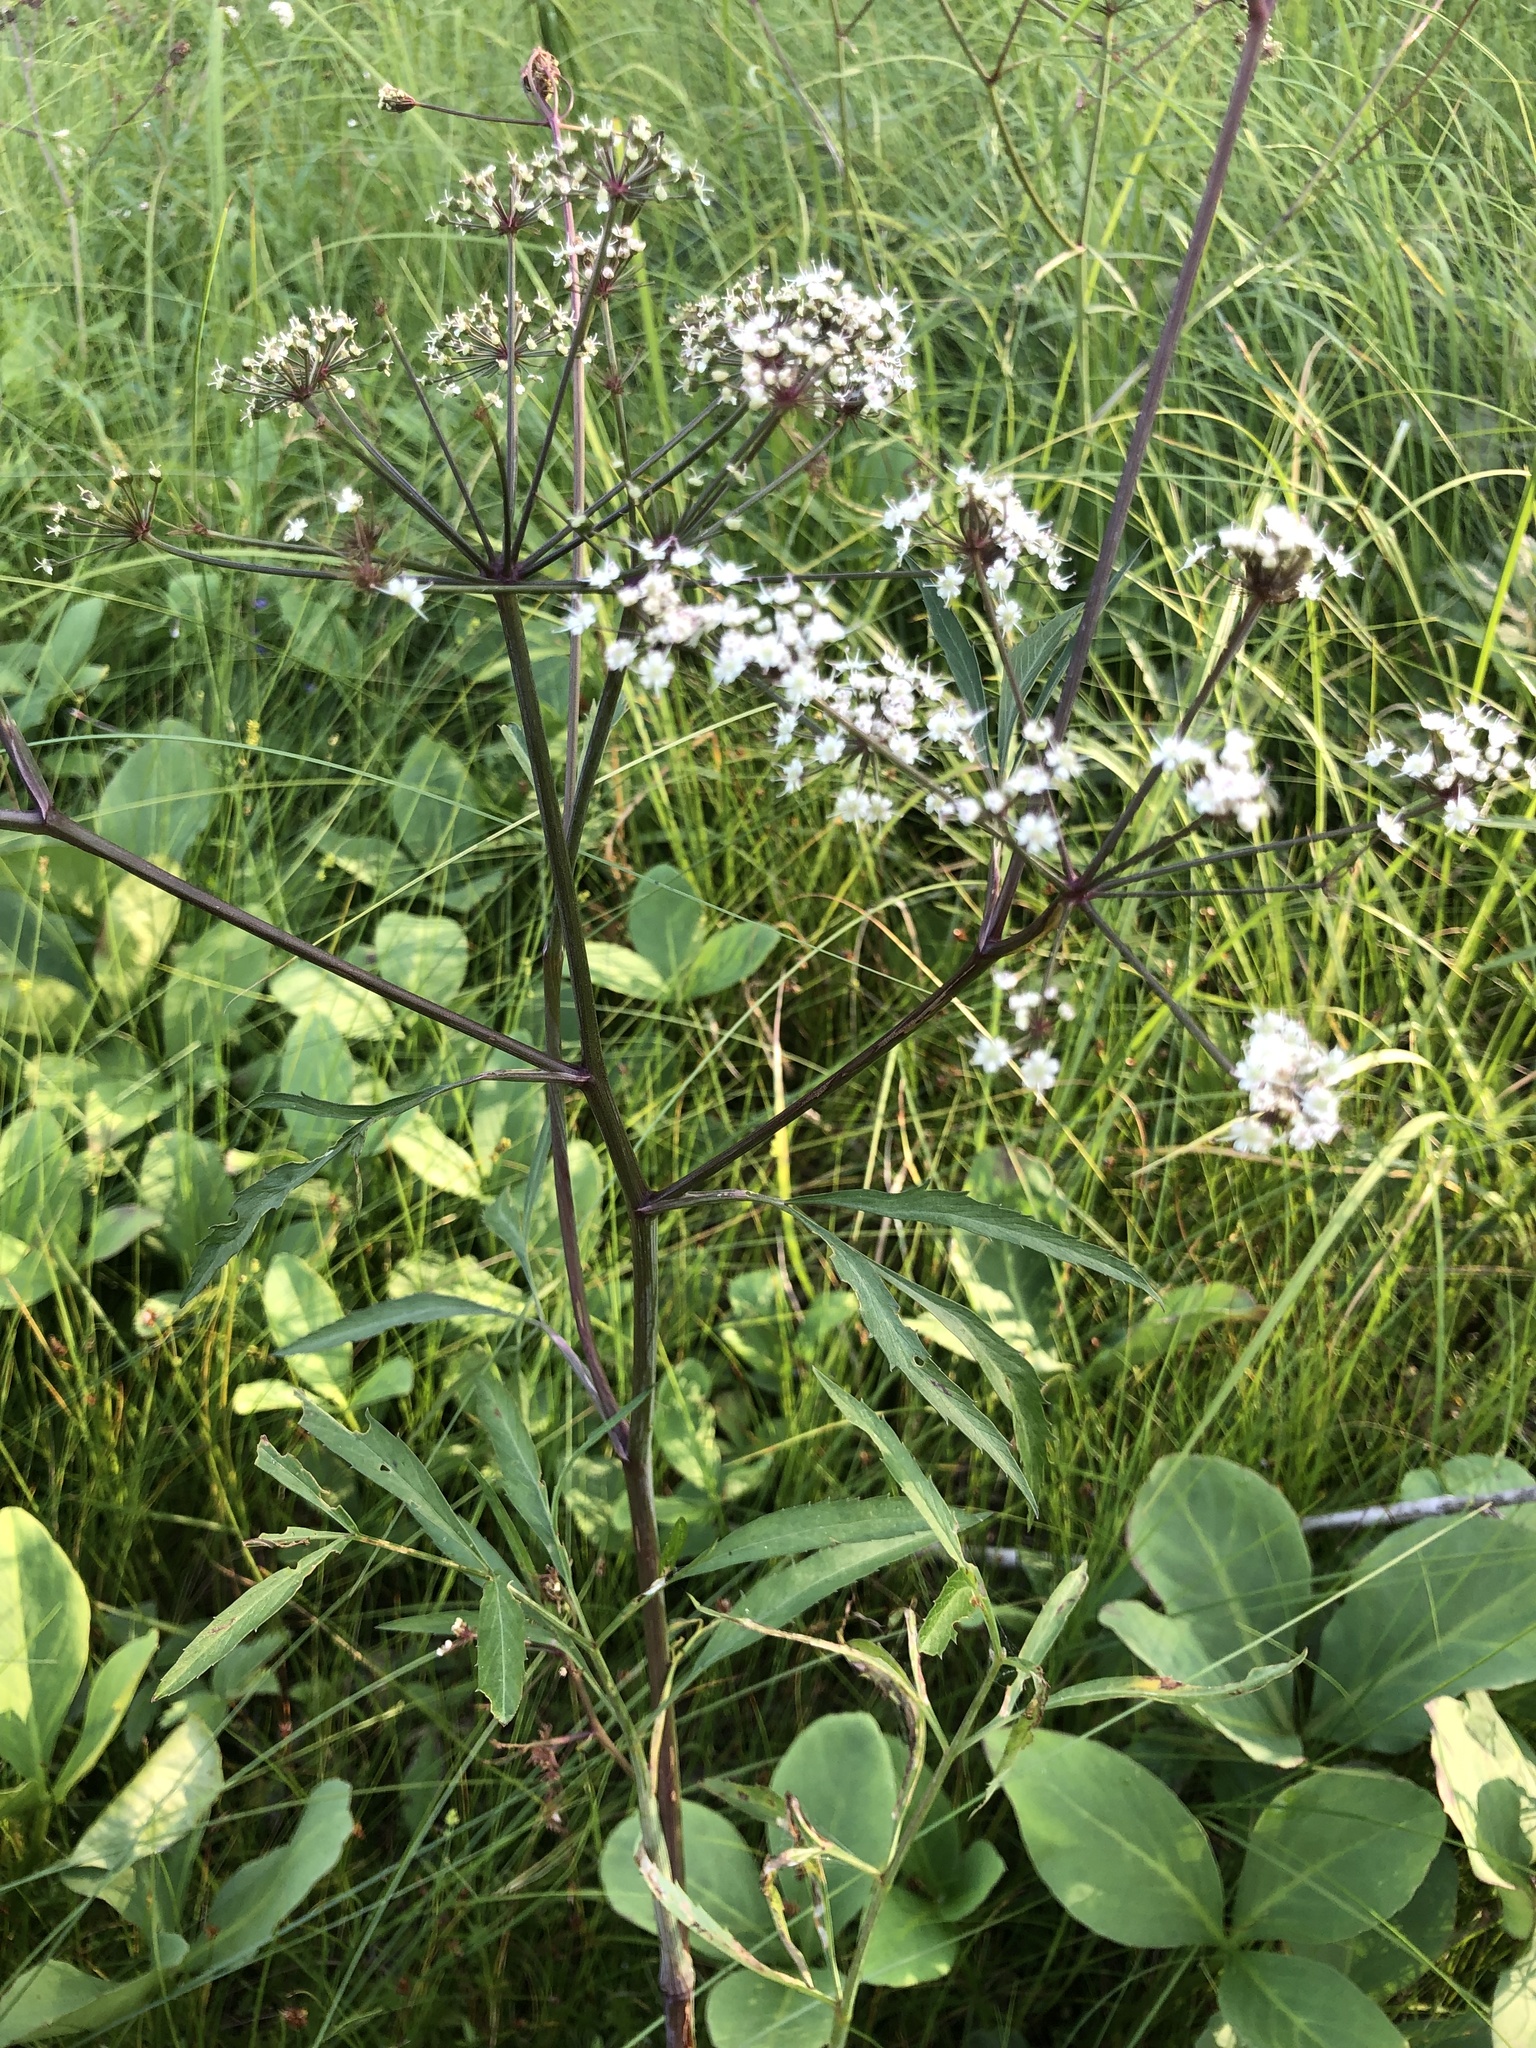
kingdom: Plantae
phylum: Tracheophyta
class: Magnoliopsida
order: Apiales
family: Apiaceae
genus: Cicuta
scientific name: Cicuta virosa
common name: Cowbane
